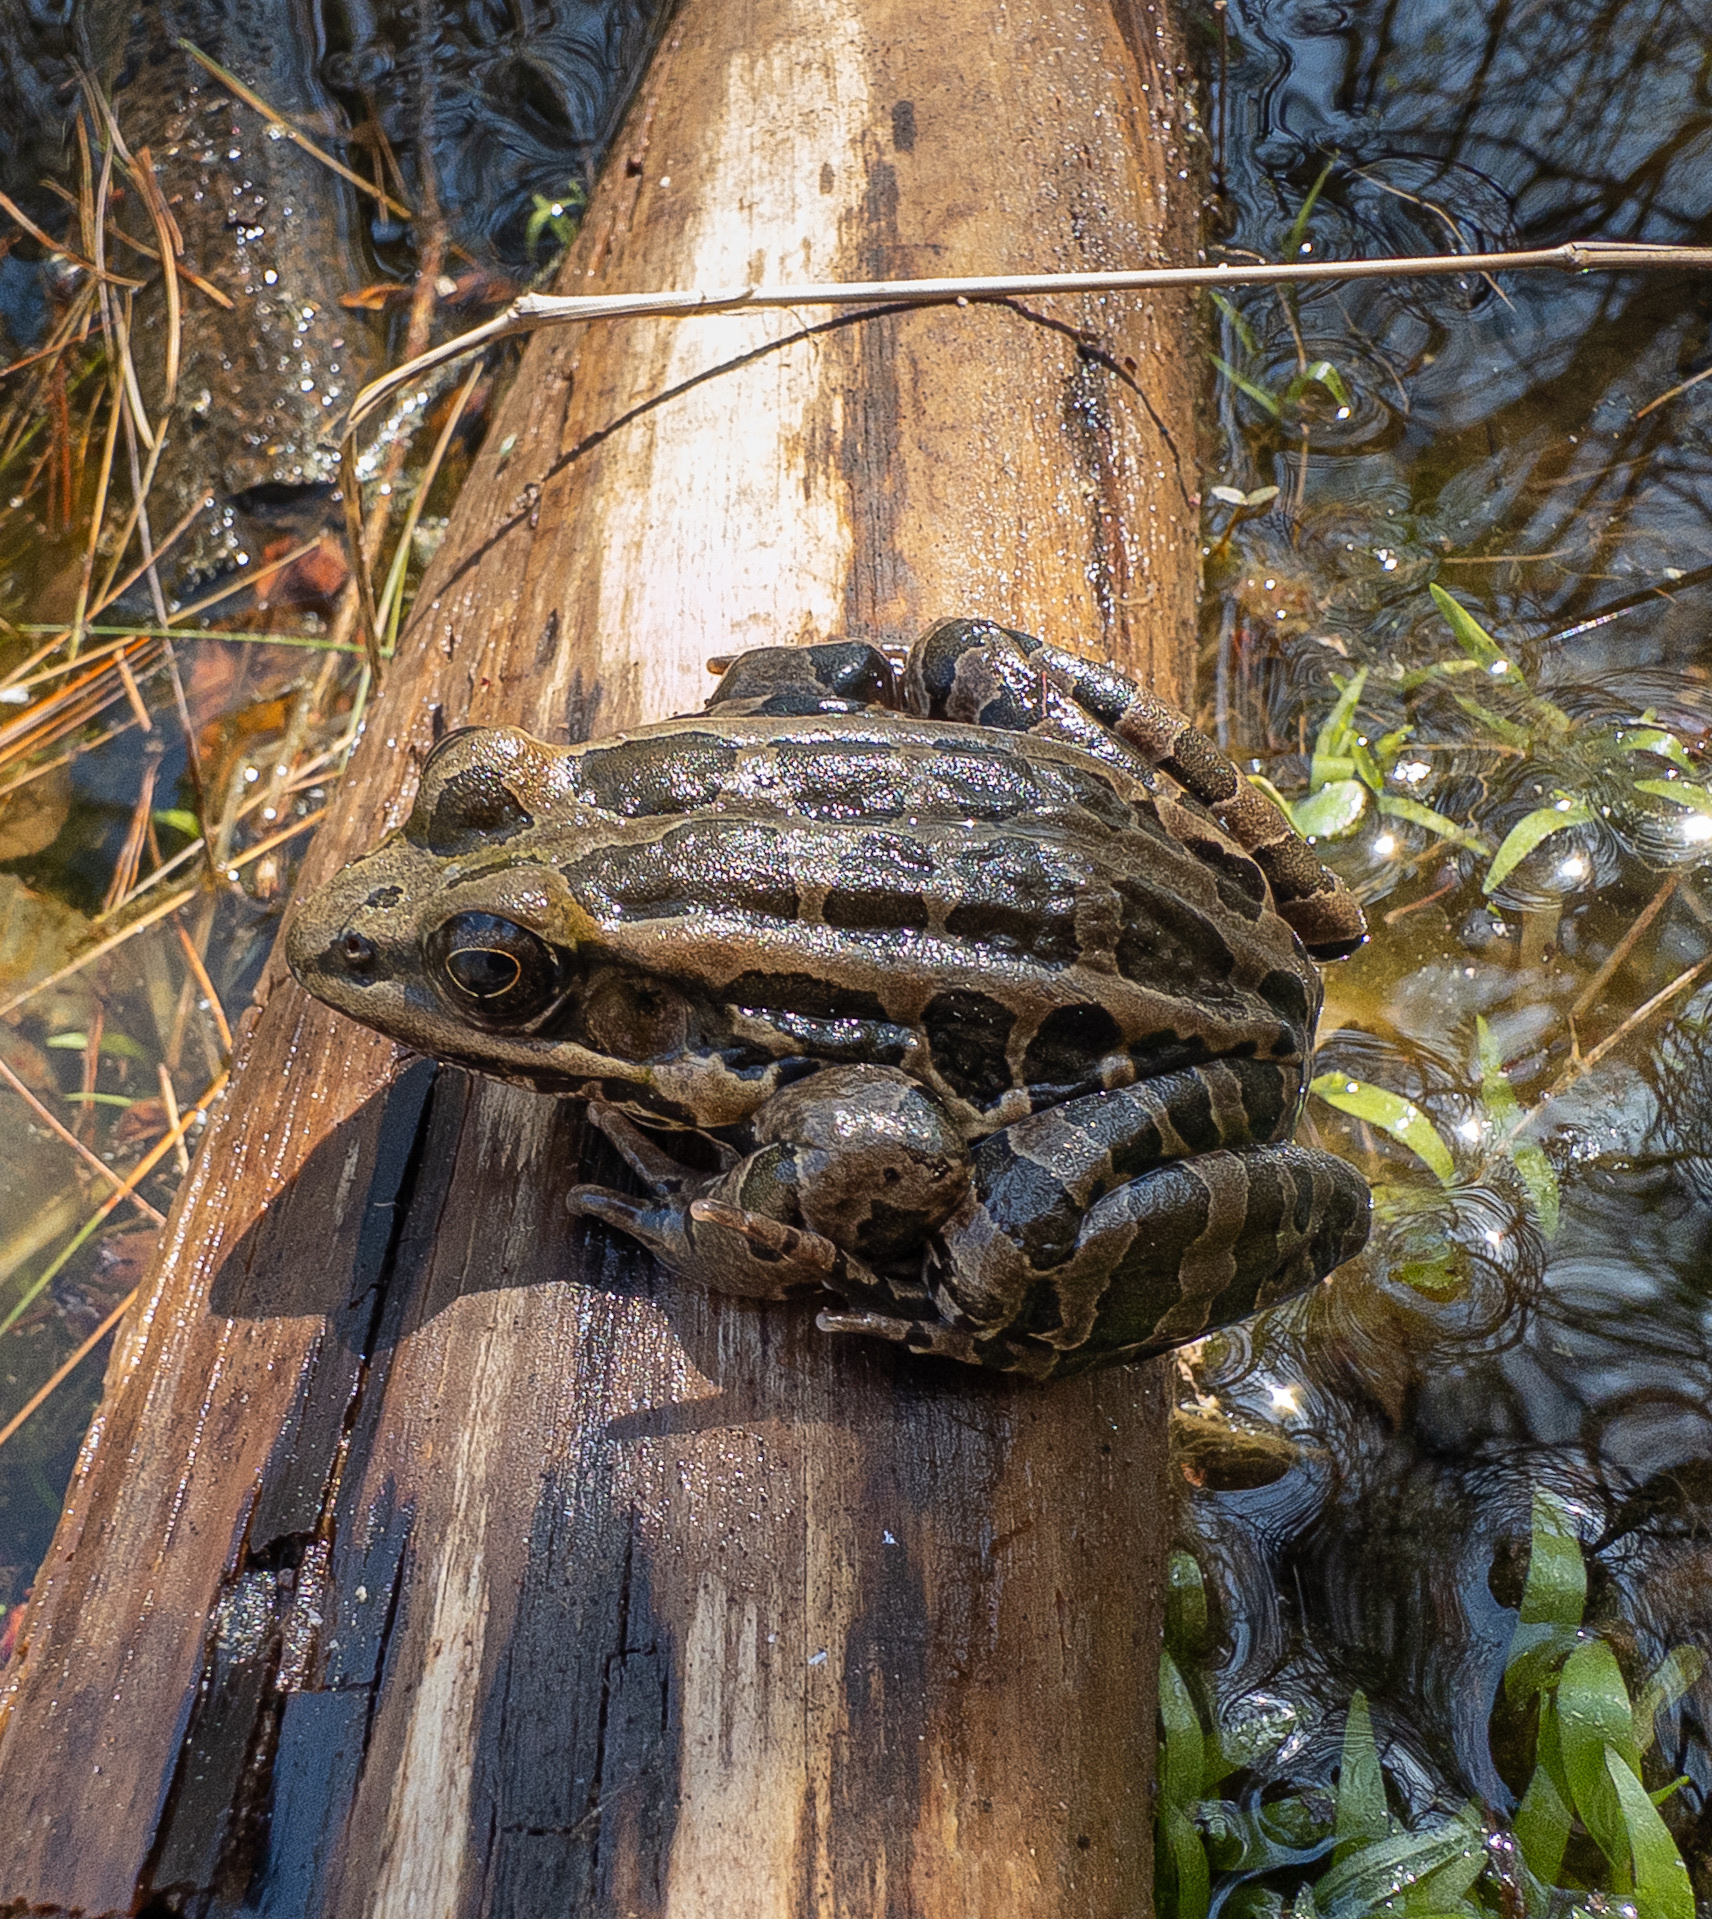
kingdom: Animalia
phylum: Chordata
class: Amphibia
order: Anura
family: Ranidae
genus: Lithobates
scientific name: Lithobates palustris
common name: Pickerel frog
